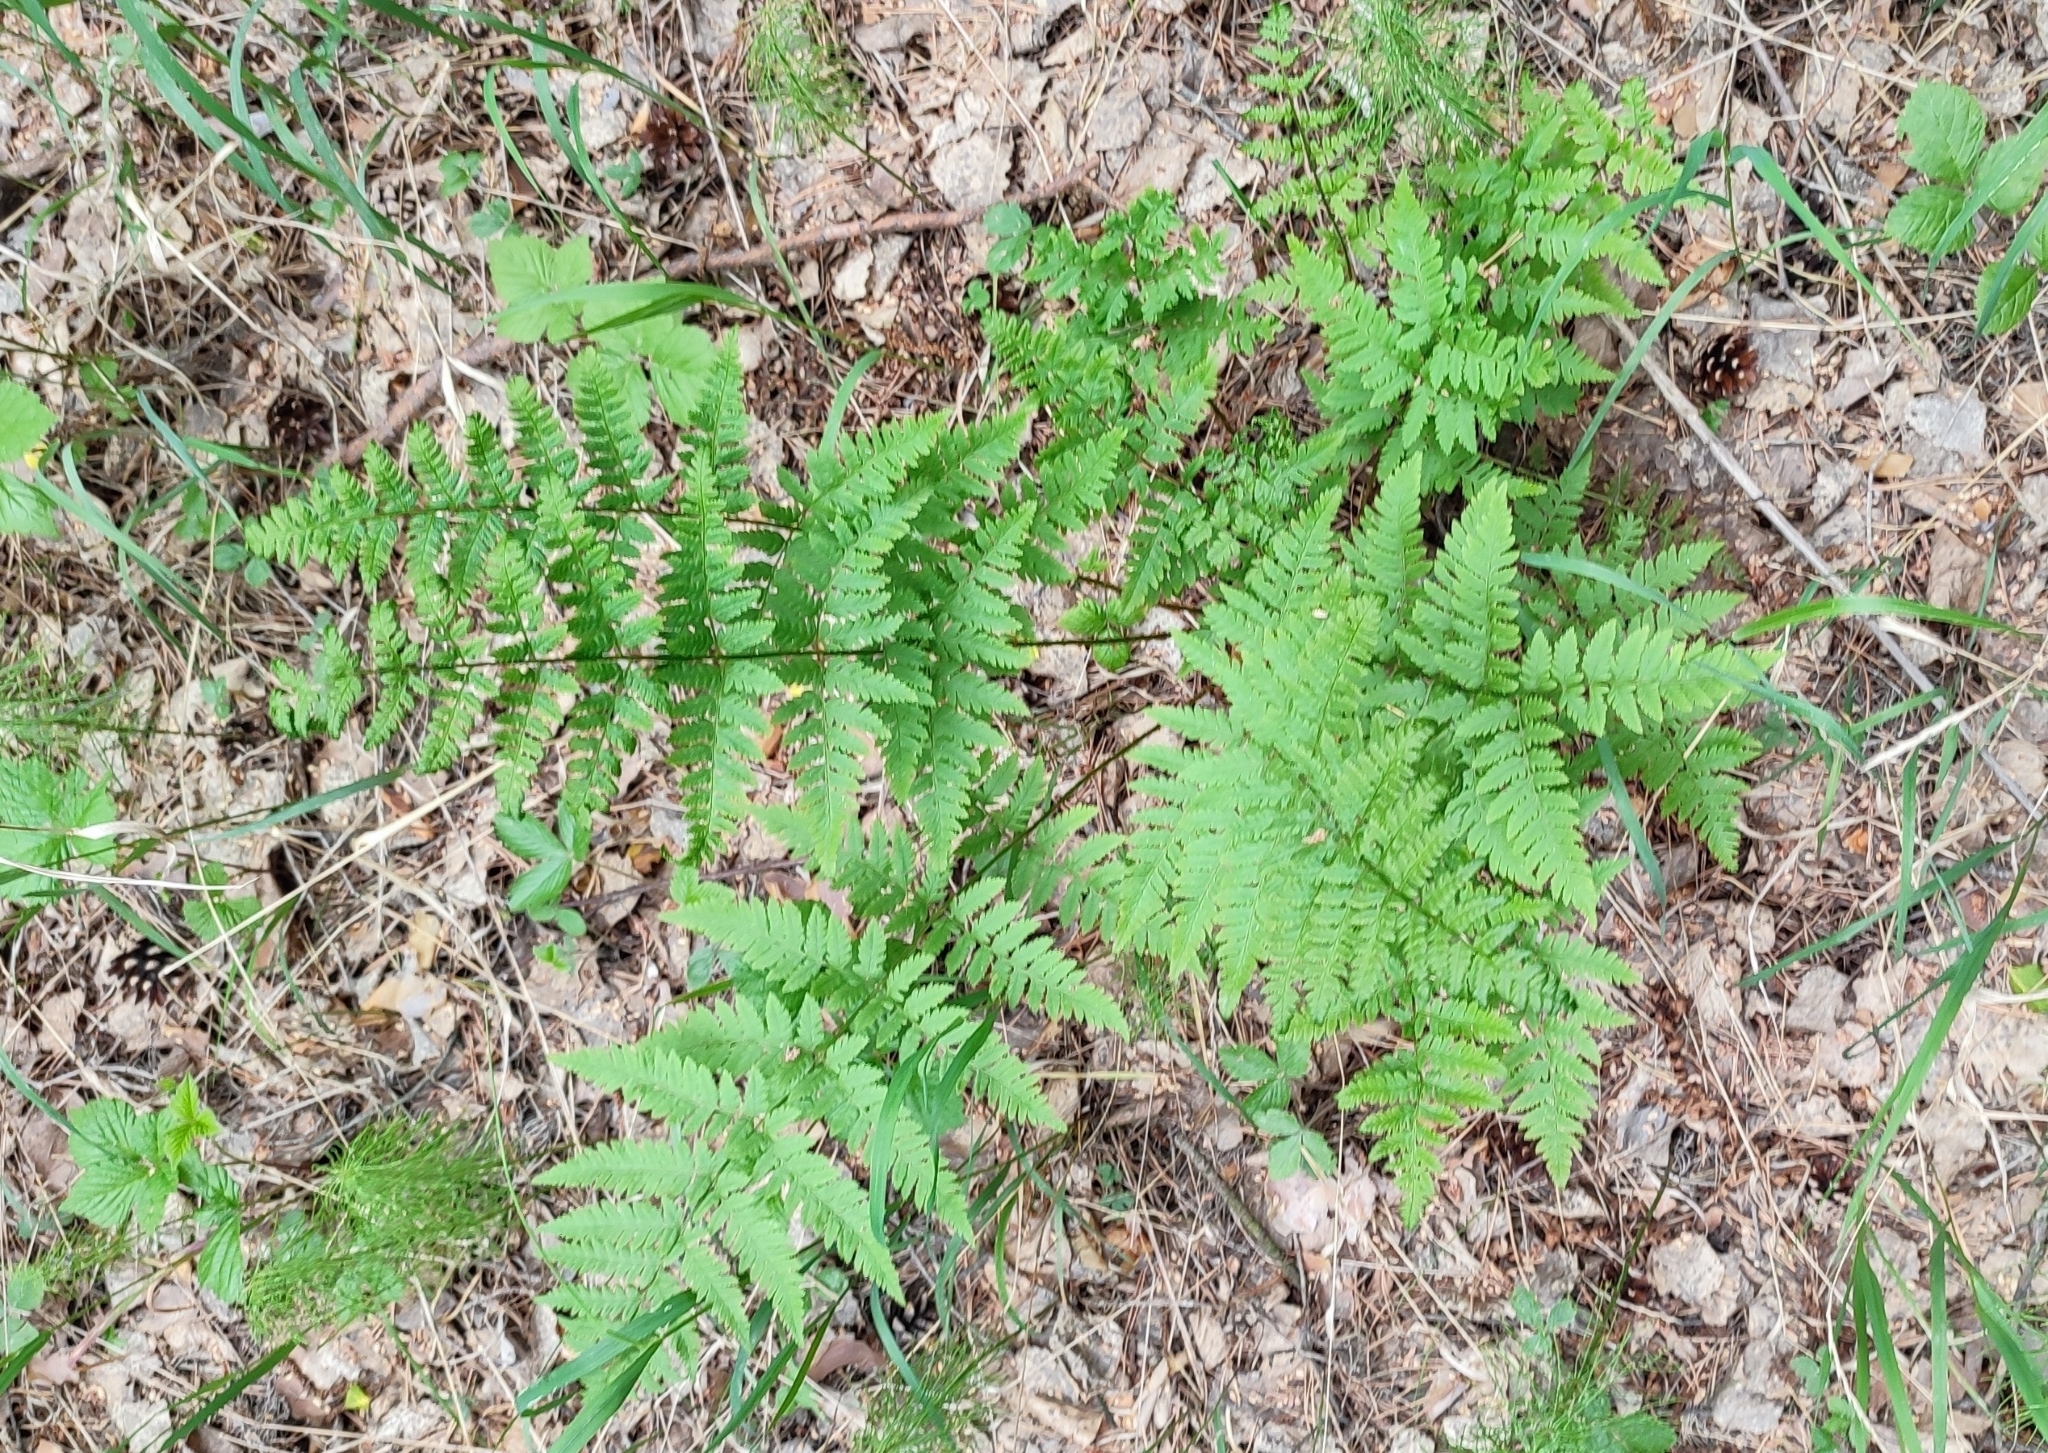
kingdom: Plantae
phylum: Tracheophyta
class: Polypodiopsida
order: Polypodiales
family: Dryopteridaceae
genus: Dryopteris
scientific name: Dryopteris carthusiana
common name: Narrow buckler-fern
